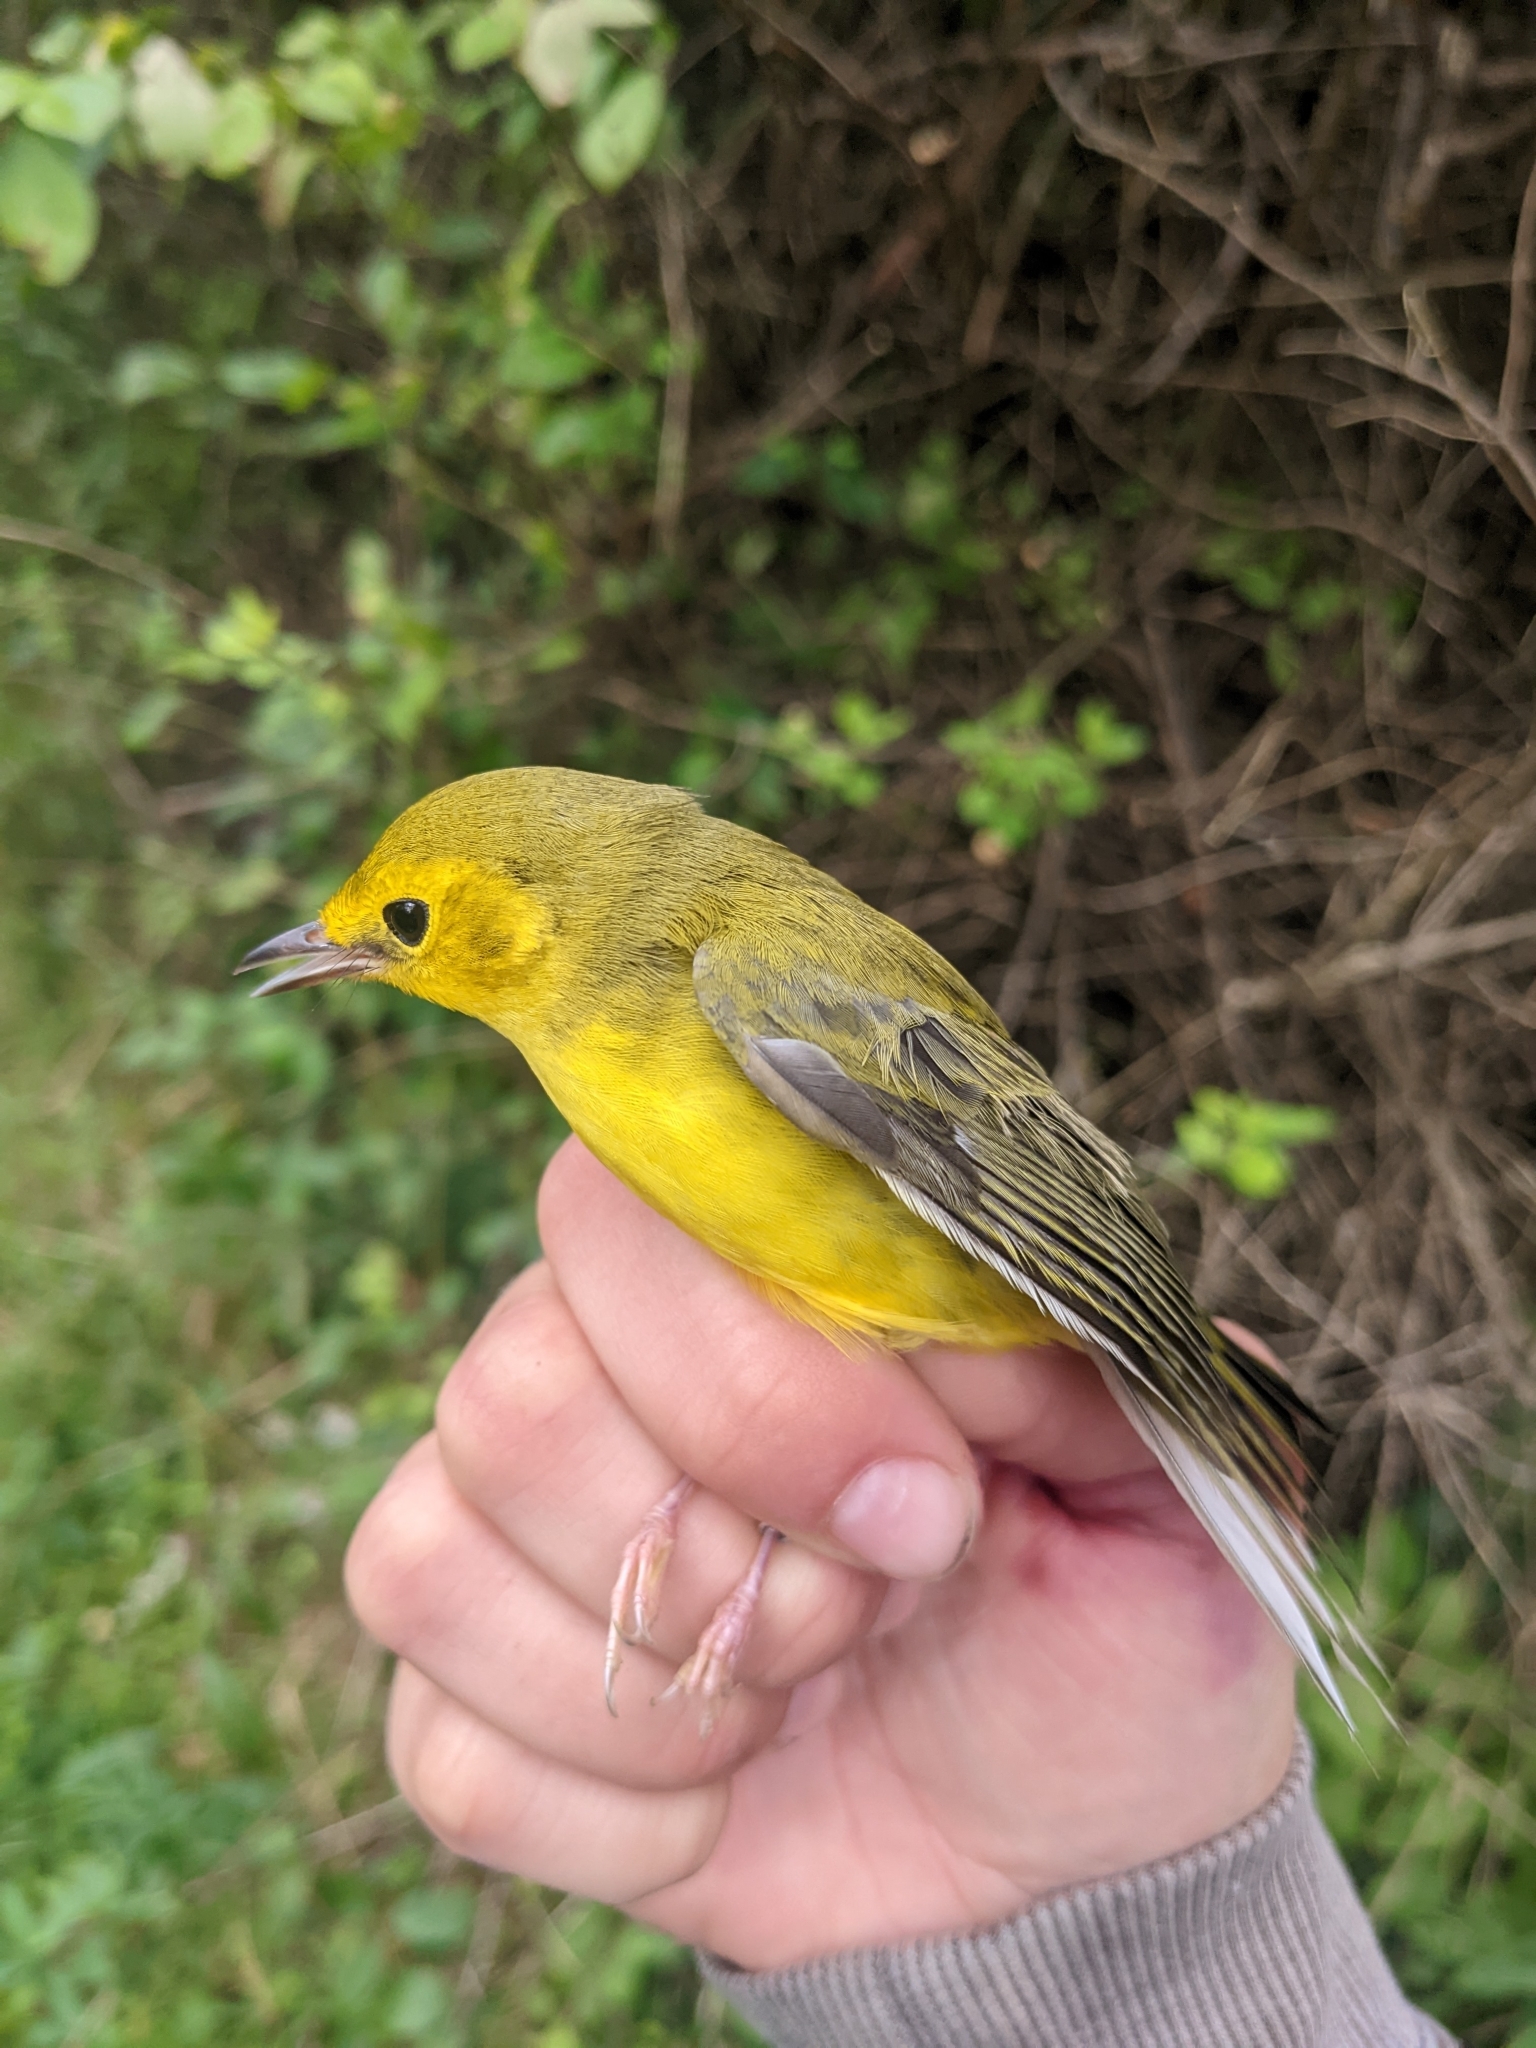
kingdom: Animalia
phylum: Chordata
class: Aves
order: Passeriformes
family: Parulidae
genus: Setophaga
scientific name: Setophaga citrina
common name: Hooded warbler
